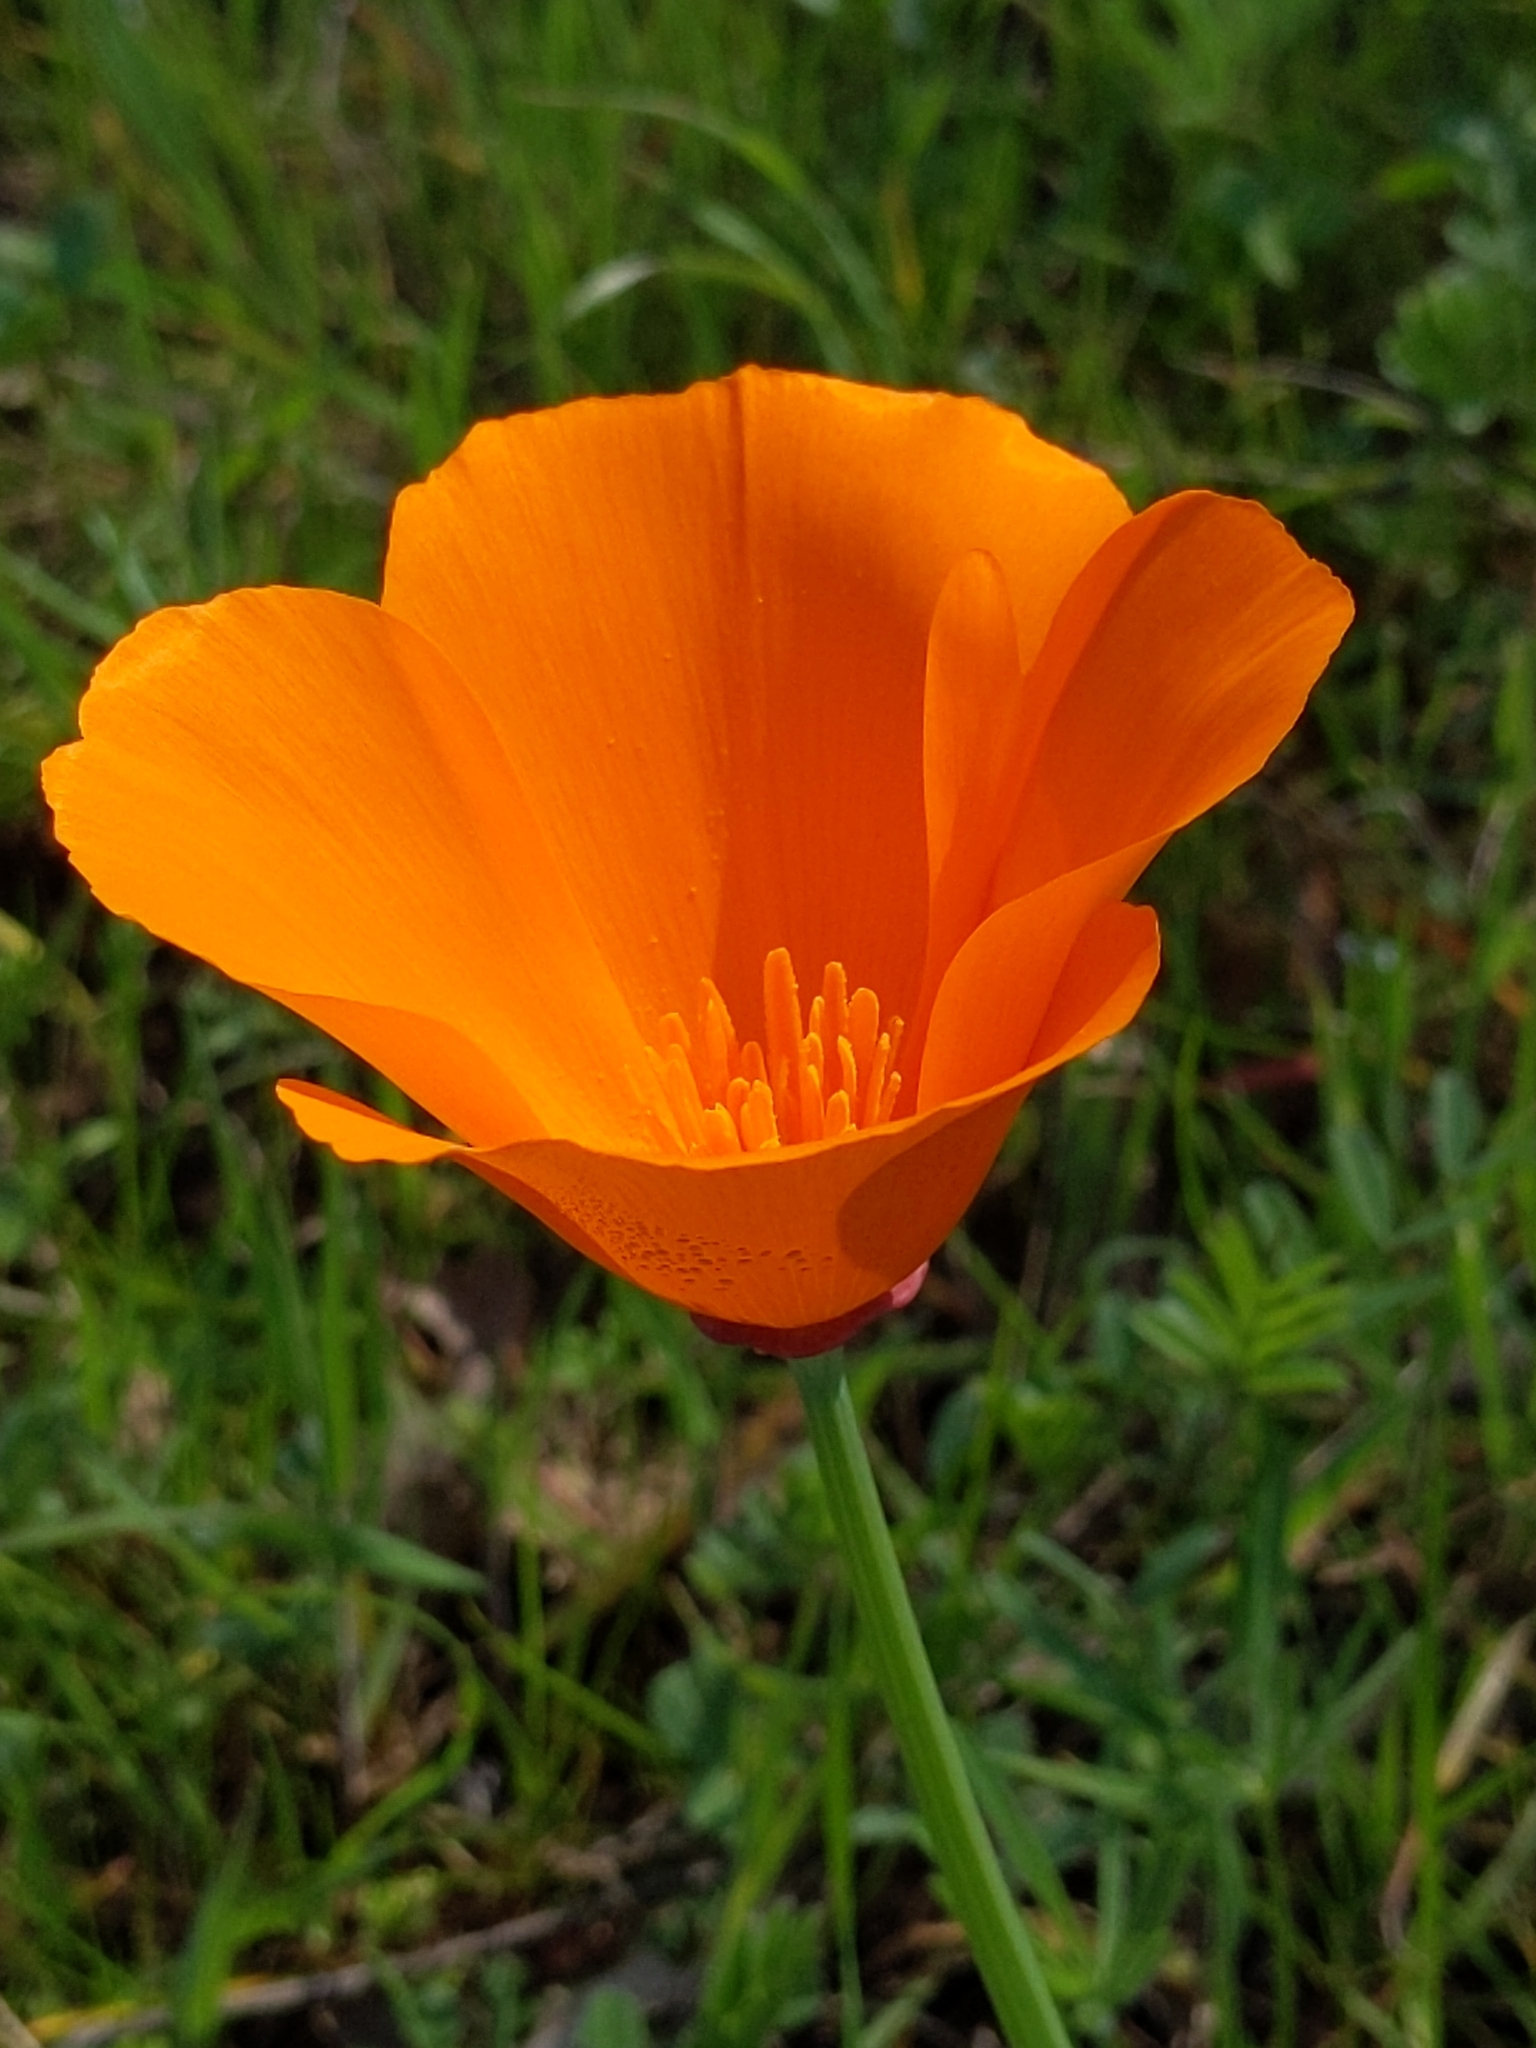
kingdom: Plantae
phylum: Tracheophyta
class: Magnoliopsida
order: Ranunculales
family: Papaveraceae
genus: Eschscholzia
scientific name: Eschscholzia californica
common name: California poppy
